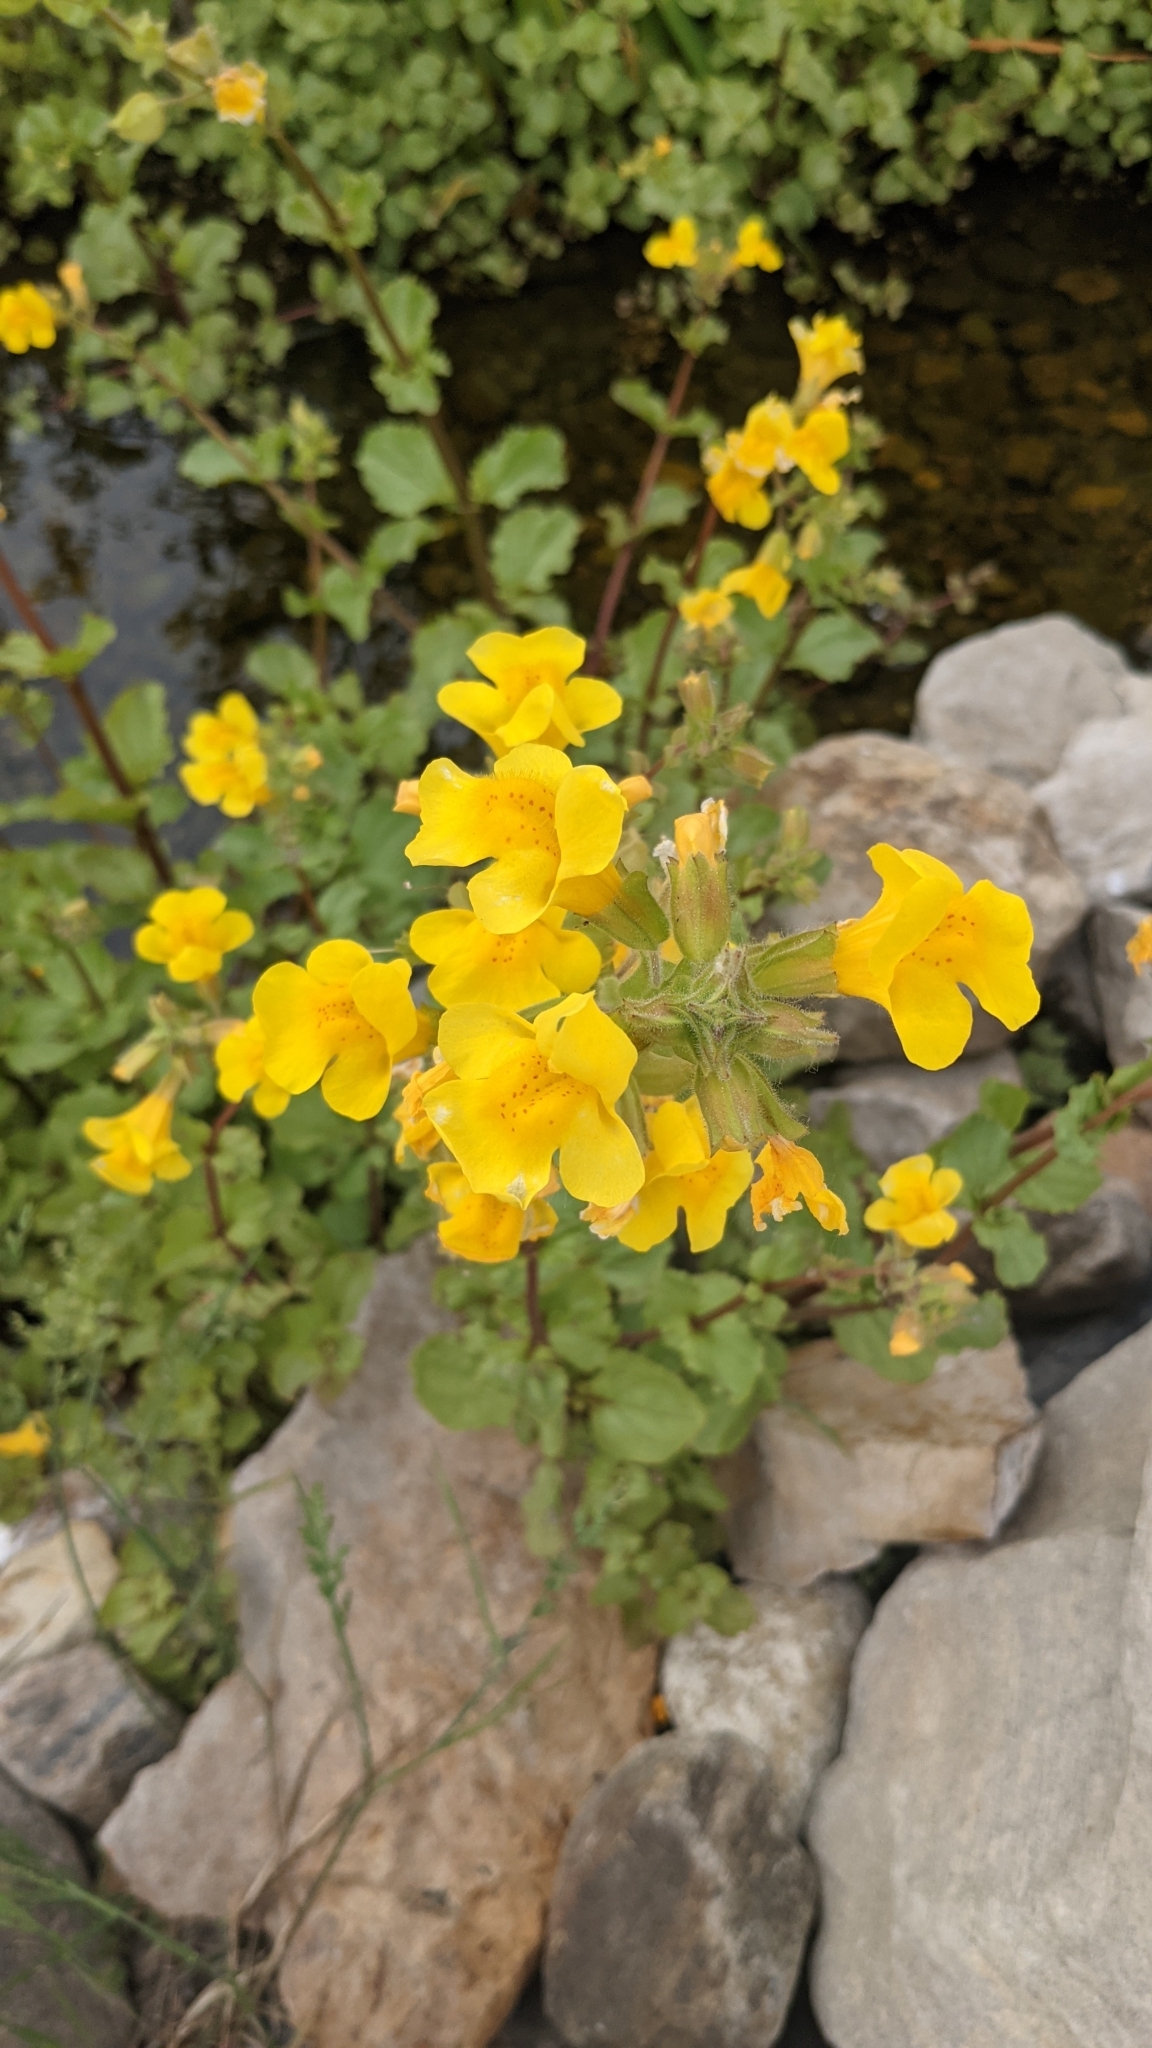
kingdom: Plantae
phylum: Tracheophyta
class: Magnoliopsida
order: Lamiales
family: Phrymaceae
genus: Erythranthe
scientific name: Erythranthe guttata
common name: Monkeyflower
